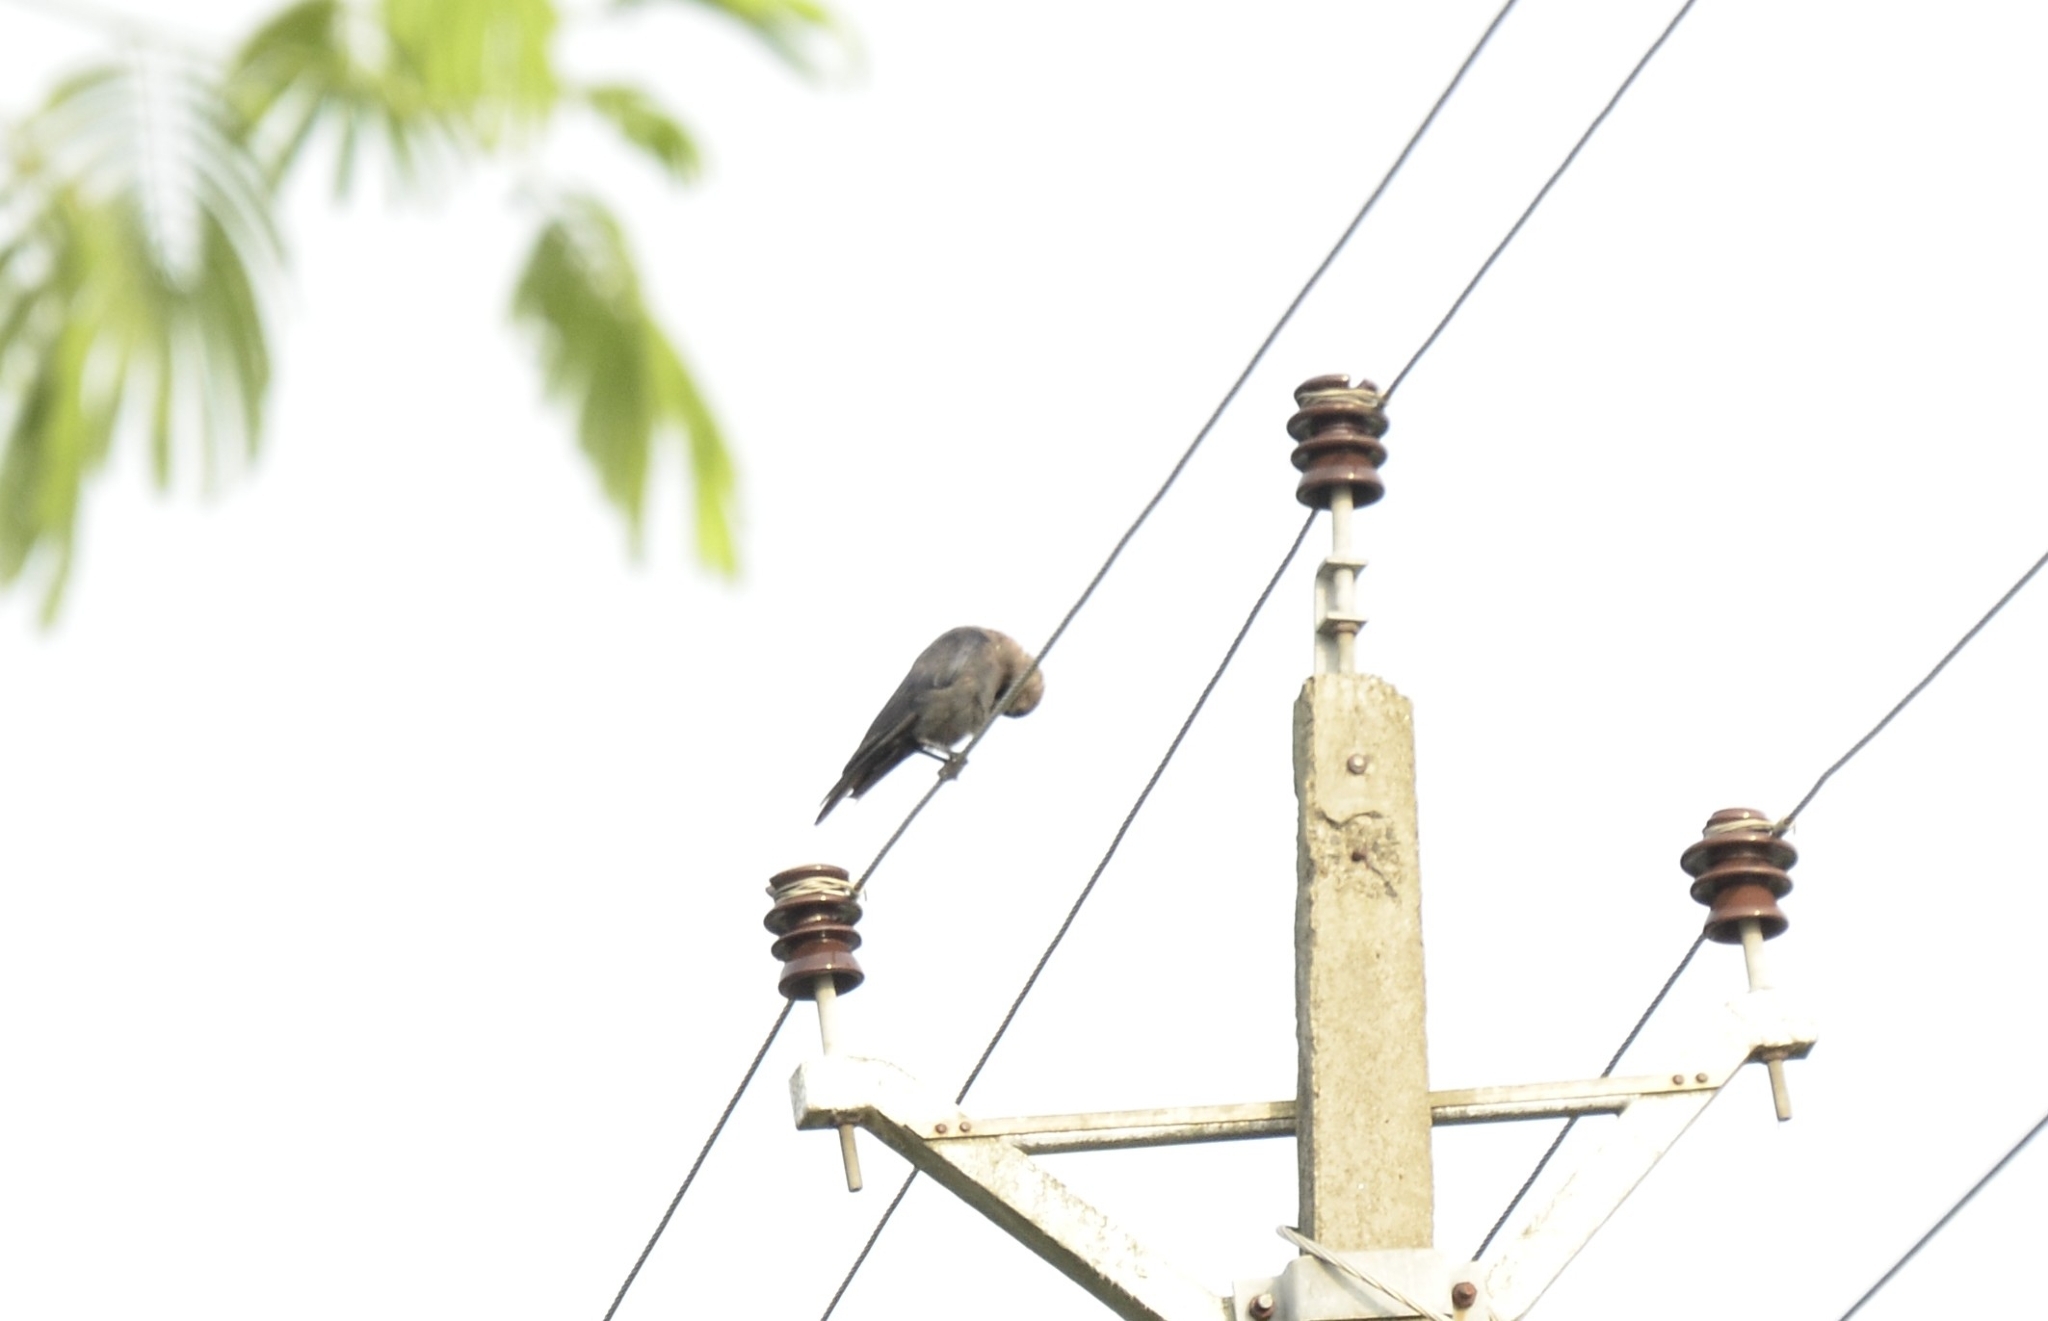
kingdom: Animalia
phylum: Chordata
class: Aves
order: Passeriformes
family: Corvidae
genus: Corvus
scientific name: Corvus splendens
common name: House crow
